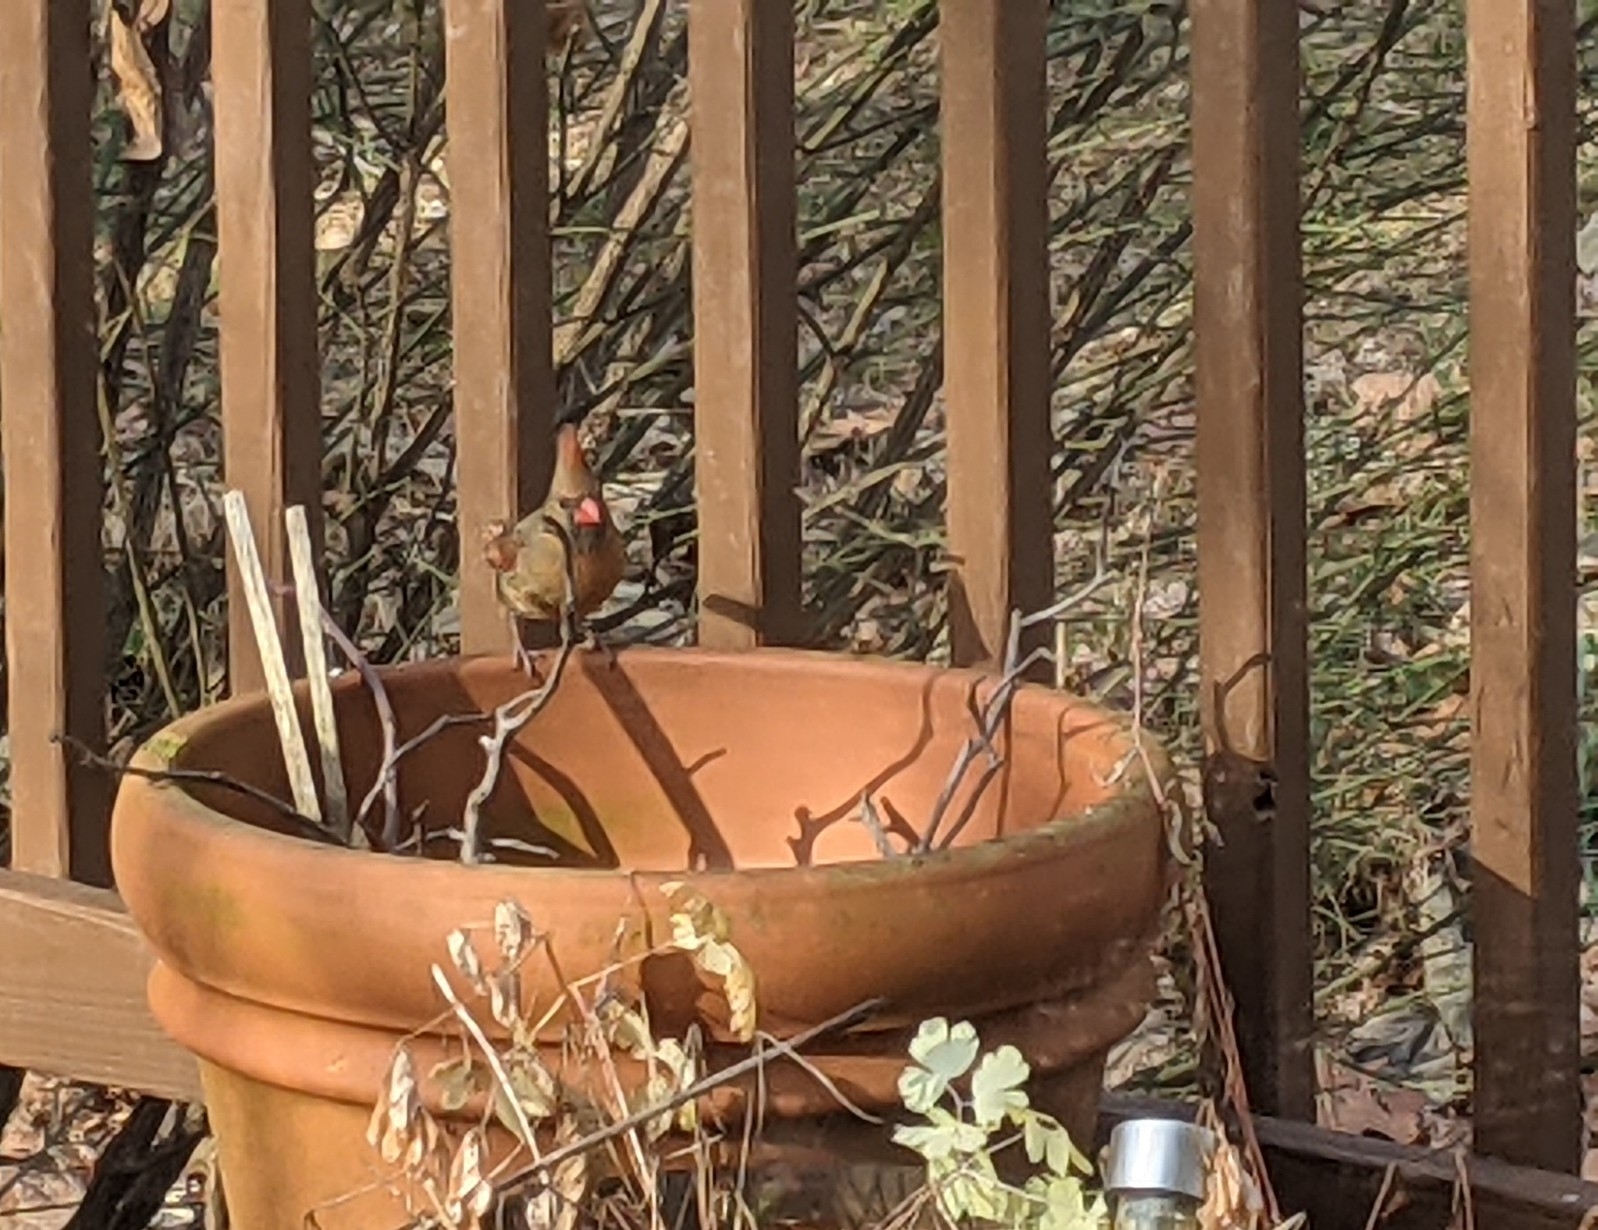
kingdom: Animalia
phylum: Chordata
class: Aves
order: Passeriformes
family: Cardinalidae
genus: Cardinalis
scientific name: Cardinalis cardinalis
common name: Northern cardinal
